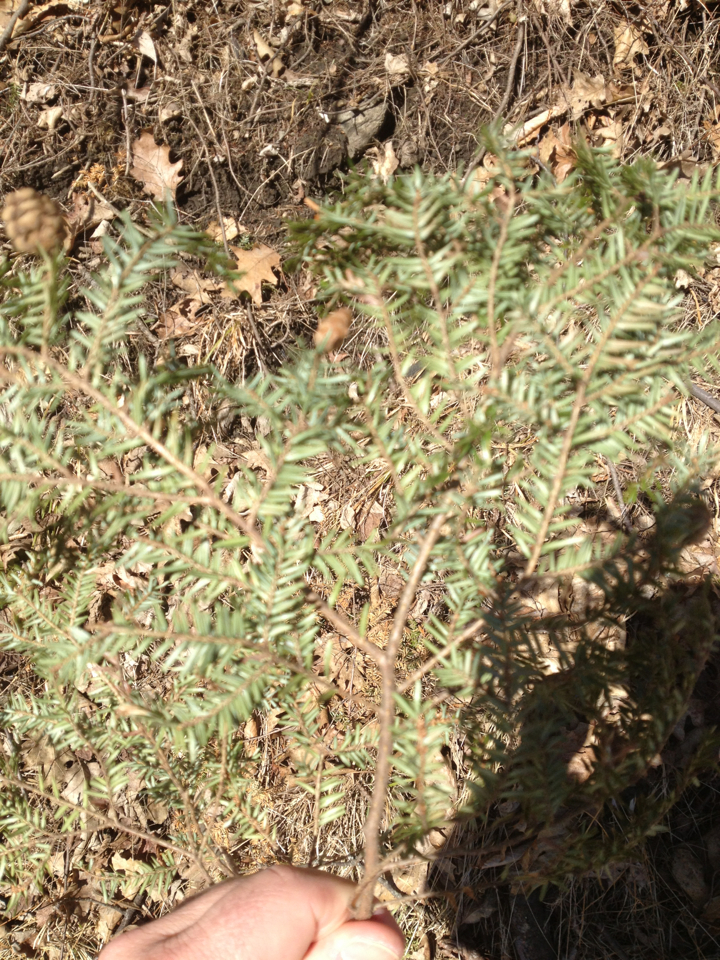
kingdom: Plantae
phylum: Tracheophyta
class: Pinopsida
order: Pinales
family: Pinaceae
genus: Tsuga
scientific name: Tsuga canadensis
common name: Eastern hemlock
